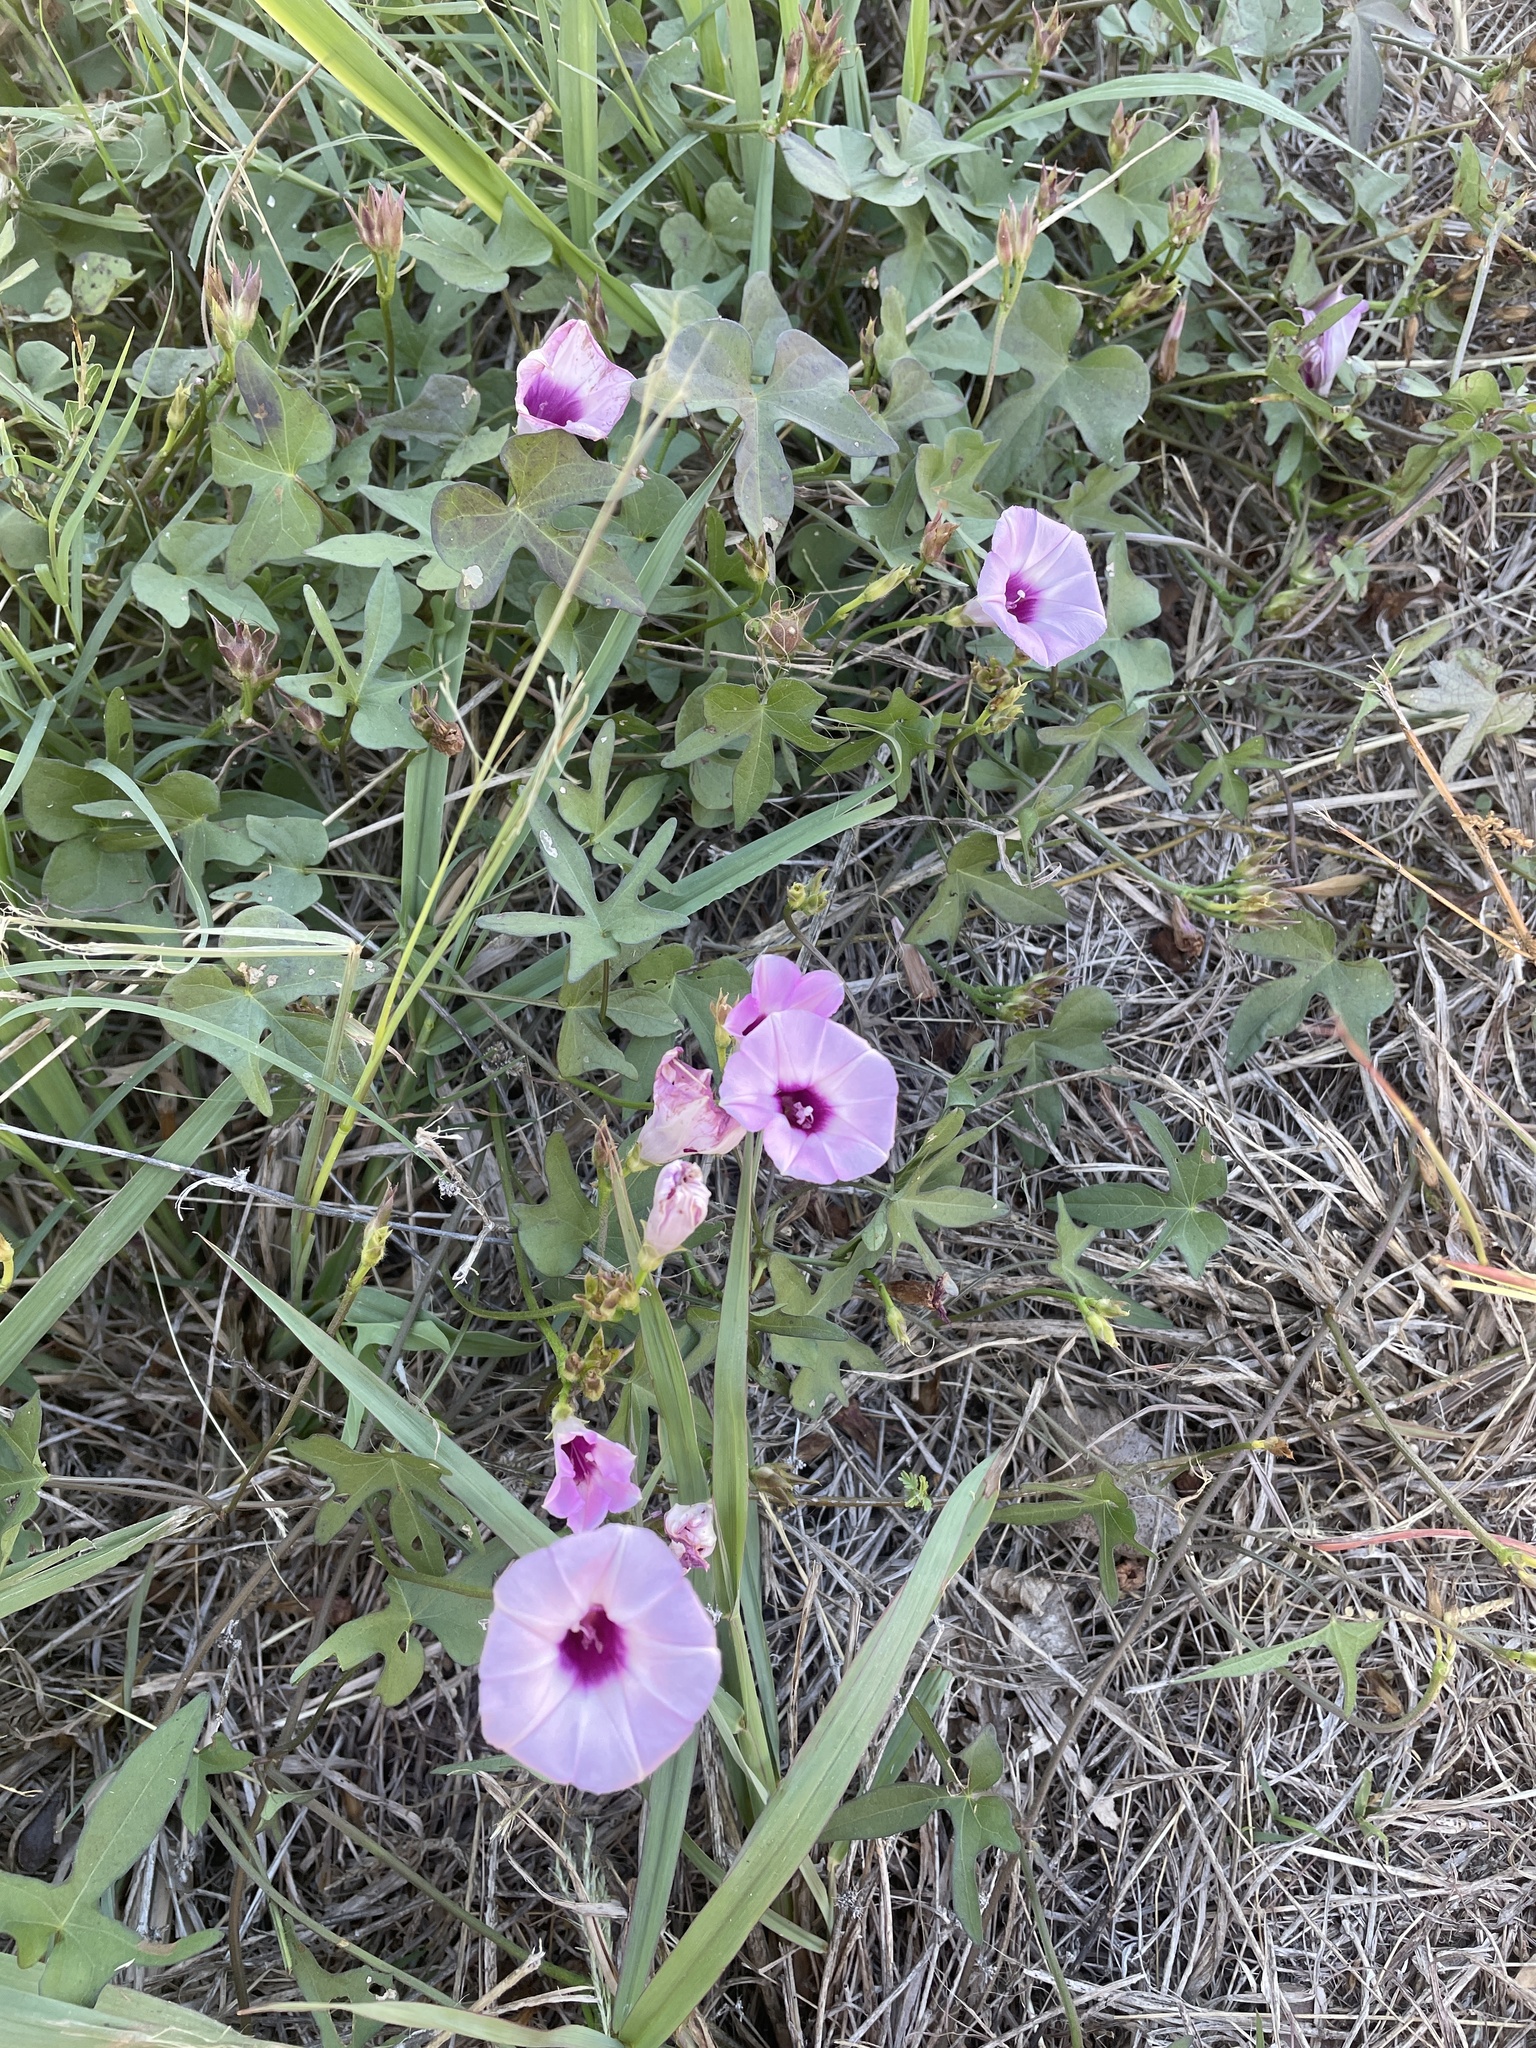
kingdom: Plantae
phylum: Tracheophyta
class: Magnoliopsida
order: Solanales
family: Convolvulaceae
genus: Ipomoea
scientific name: Ipomoea cordatotriloba
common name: Cotton morning glory
